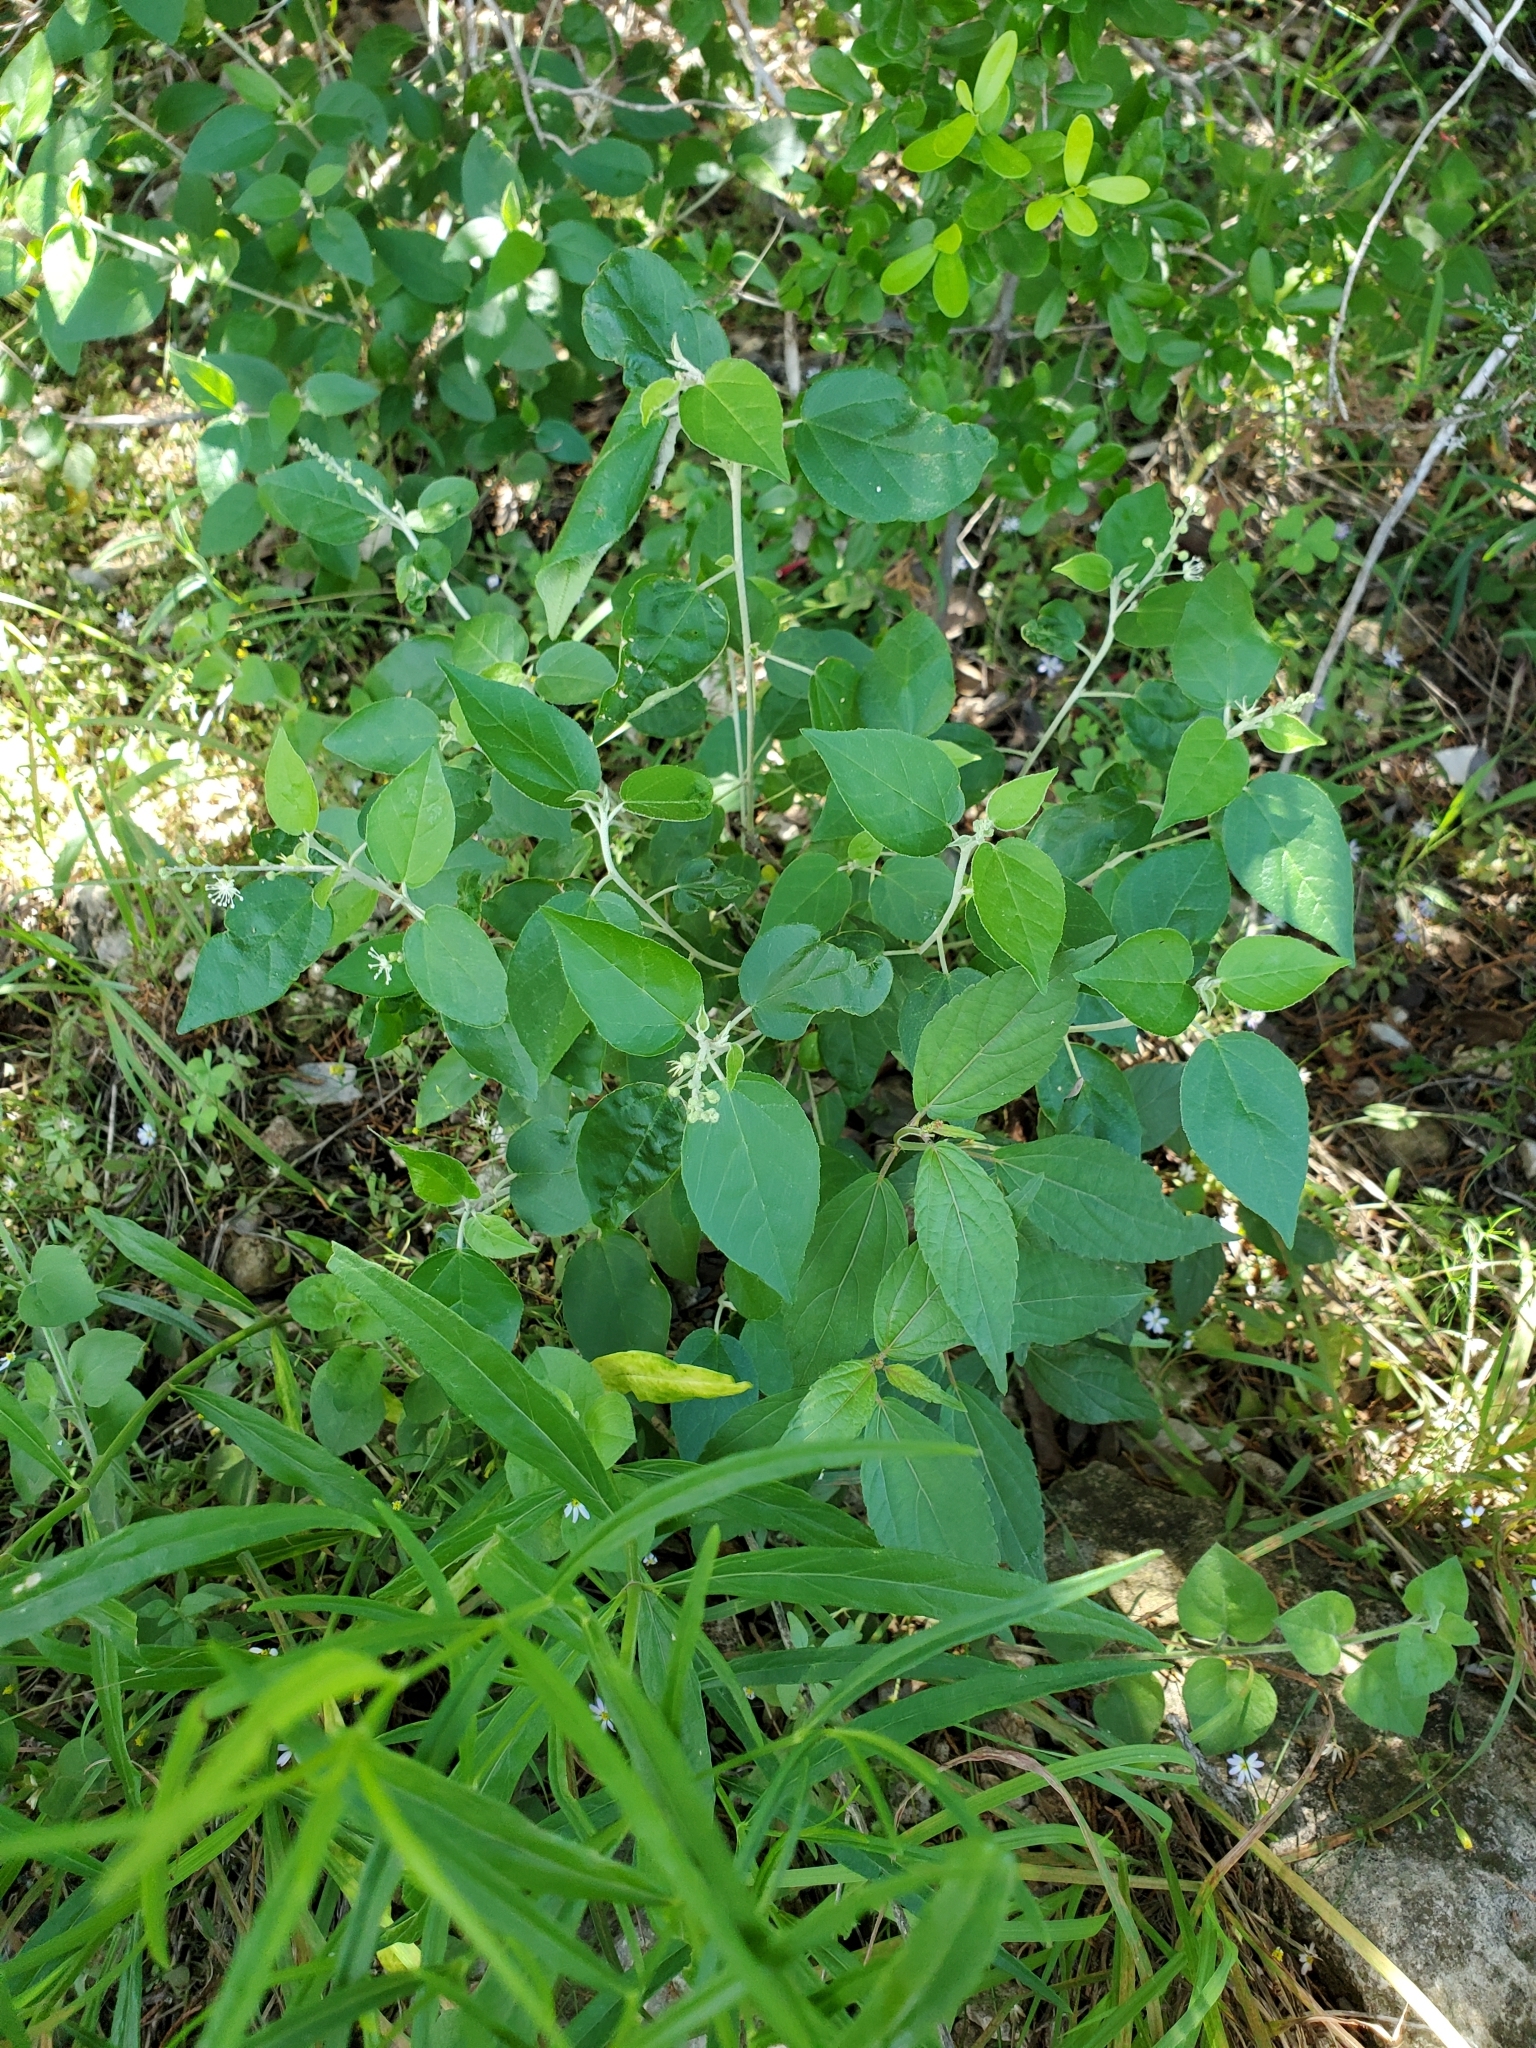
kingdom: Plantae
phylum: Tracheophyta
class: Magnoliopsida
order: Malpighiales
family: Euphorbiaceae
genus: Croton
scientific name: Croton fruticulosus
